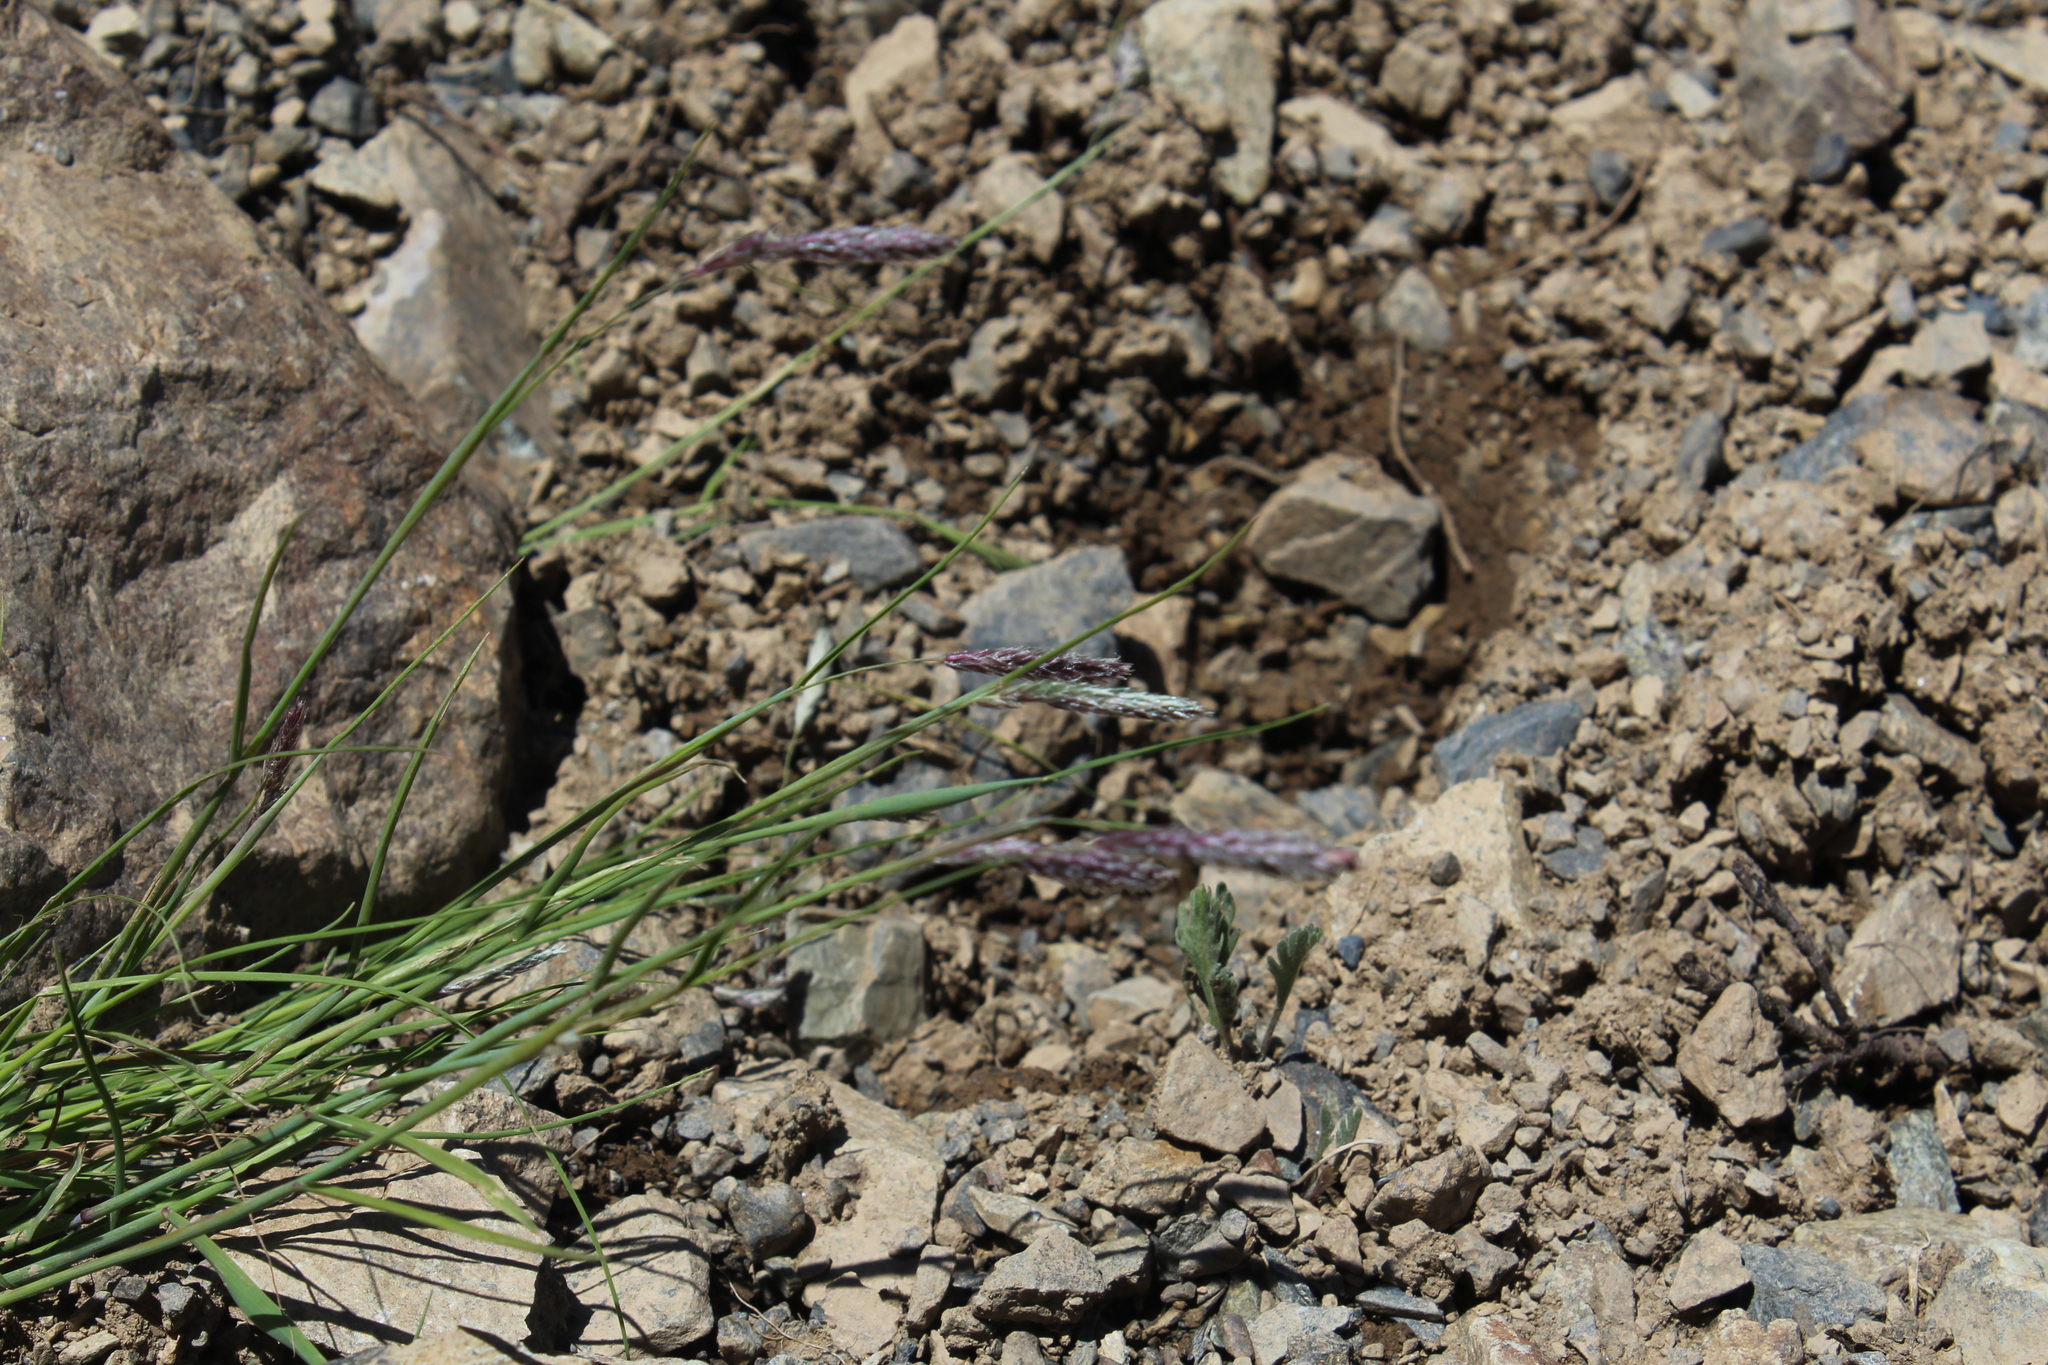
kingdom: Plantae
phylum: Tracheophyta
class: Liliopsida
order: Poales
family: Poaceae
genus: Alopecurus
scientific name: Alopecurus ponticus
